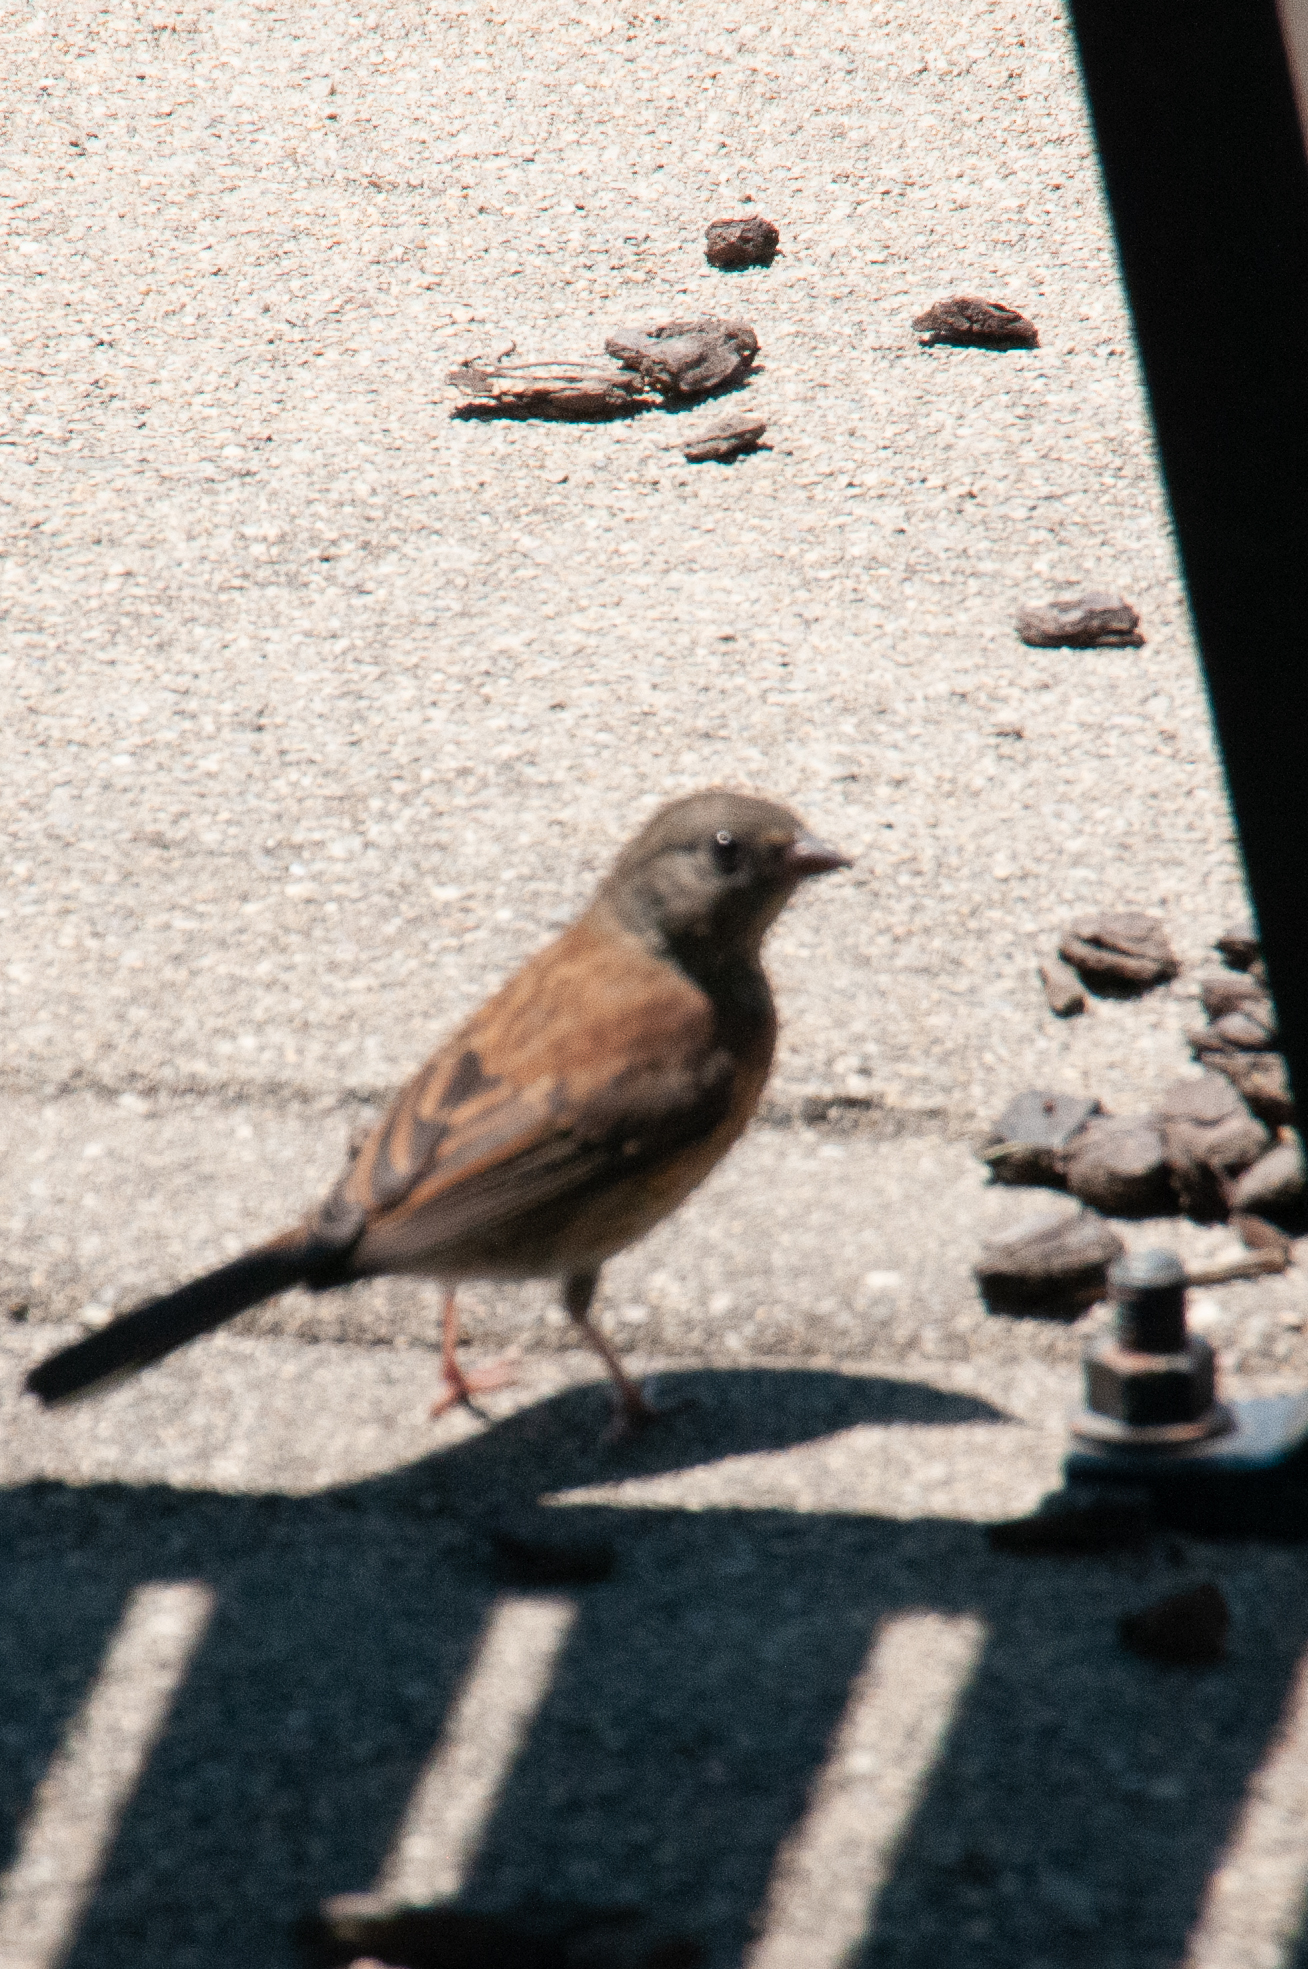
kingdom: Animalia
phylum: Chordata
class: Aves
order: Passeriformes
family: Passerellidae
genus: Junco
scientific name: Junco hyemalis
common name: Dark-eyed junco
